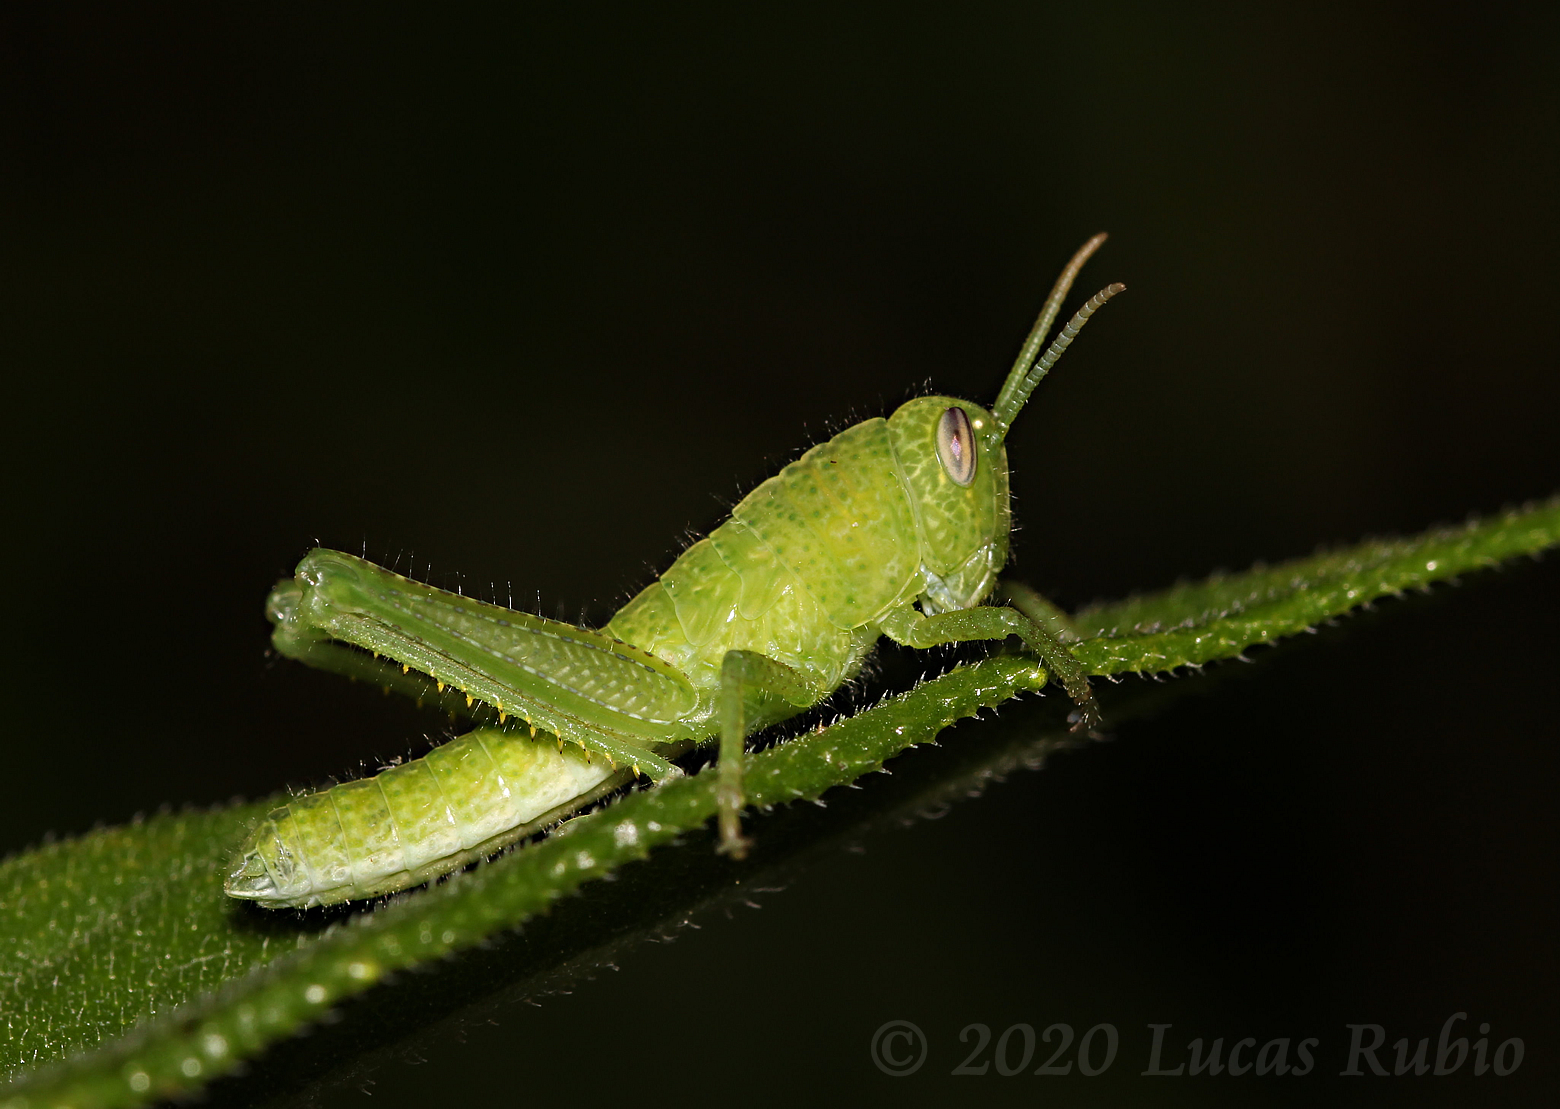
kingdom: Animalia
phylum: Arthropoda
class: Insecta
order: Orthoptera
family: Acrididae
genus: Schistocerca
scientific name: Schistocerca flavofasciata
